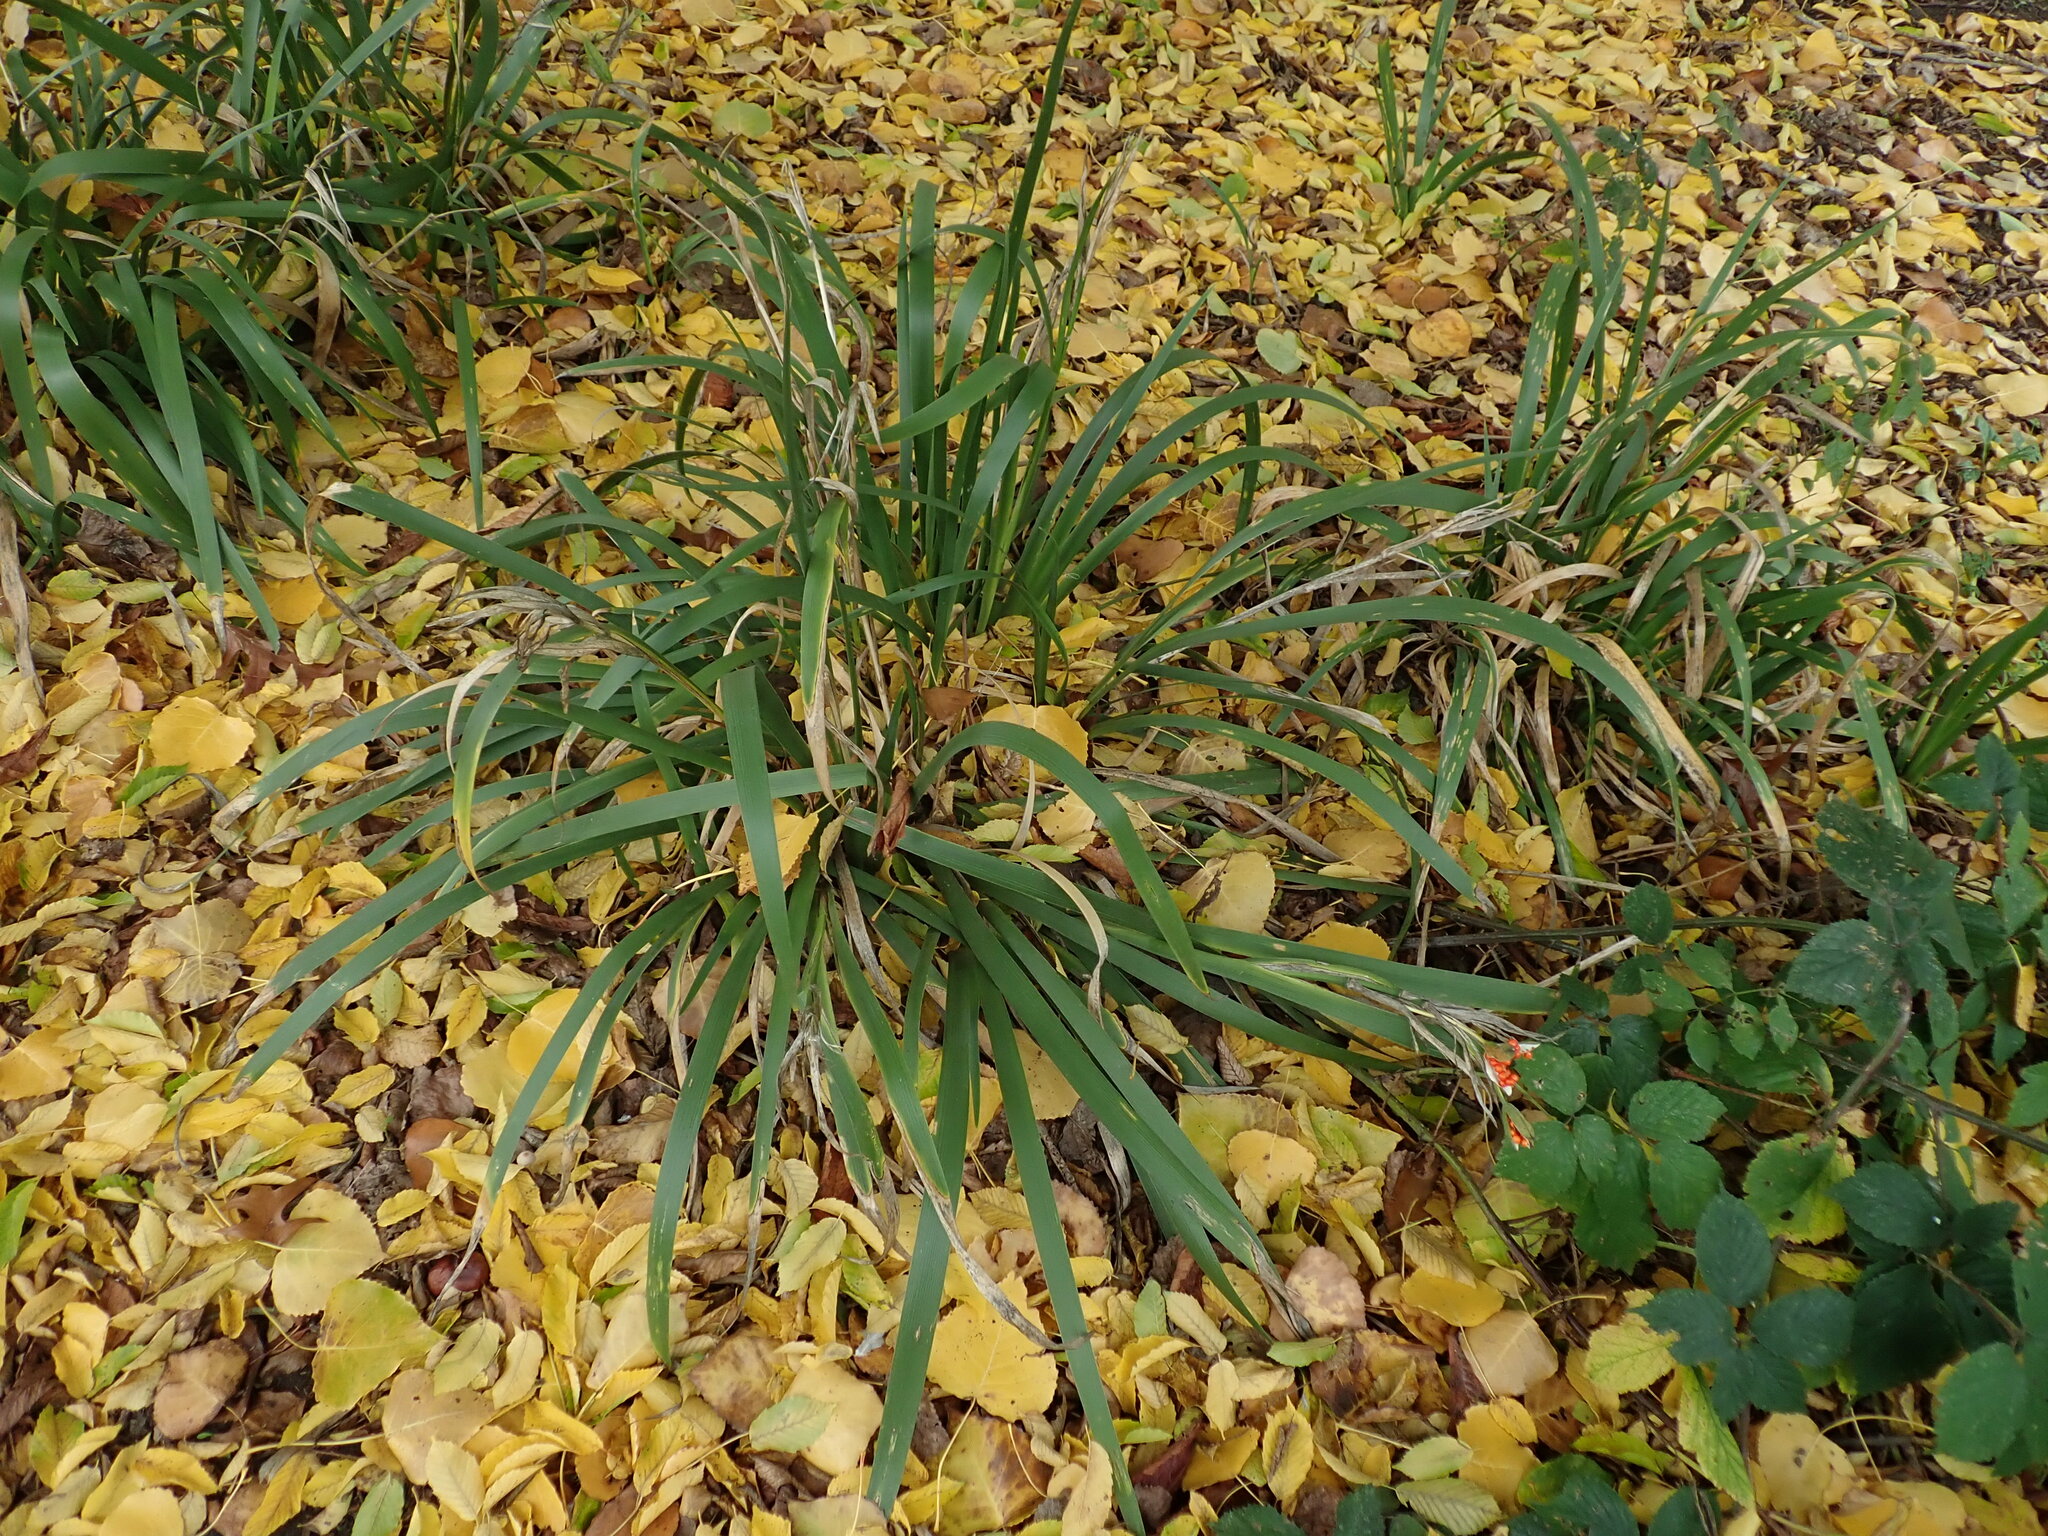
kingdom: Plantae
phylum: Tracheophyta
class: Liliopsida
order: Asparagales
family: Iridaceae
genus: Iris
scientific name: Iris foetidissima
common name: Stinking iris
